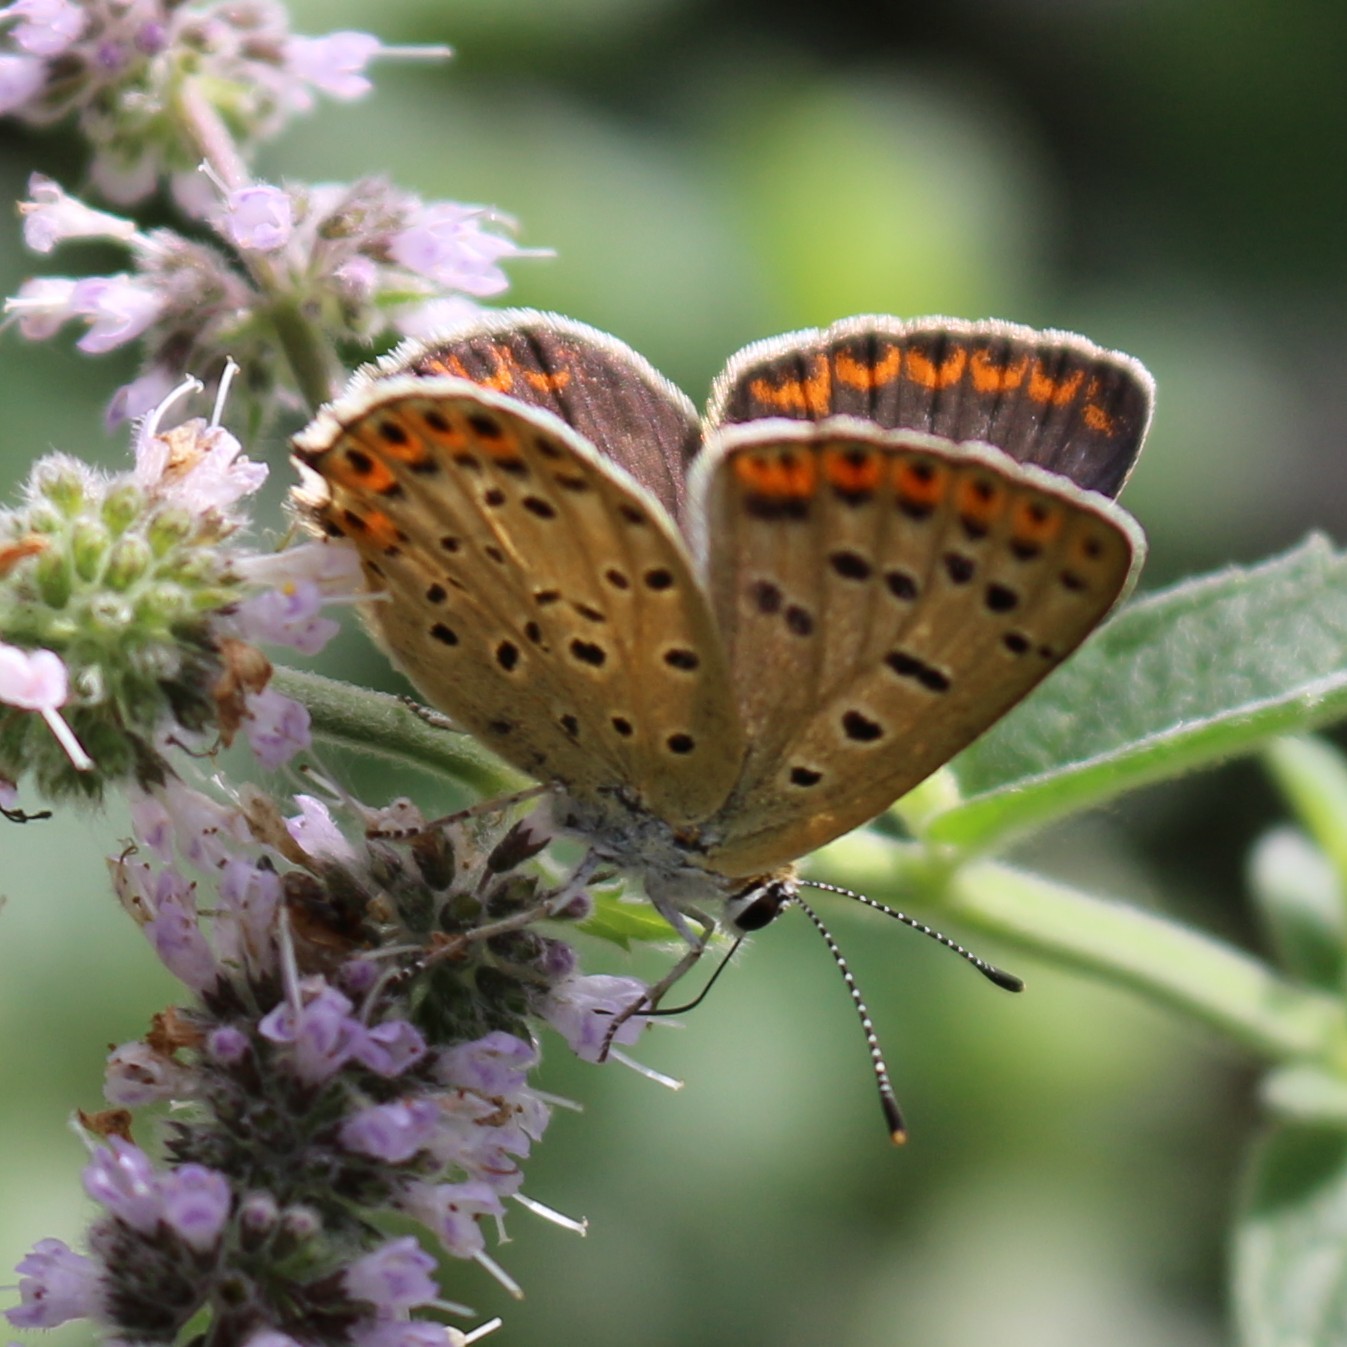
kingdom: Animalia
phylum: Arthropoda
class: Insecta
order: Lepidoptera
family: Lycaenidae
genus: Loweia
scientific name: Loweia tityrus
